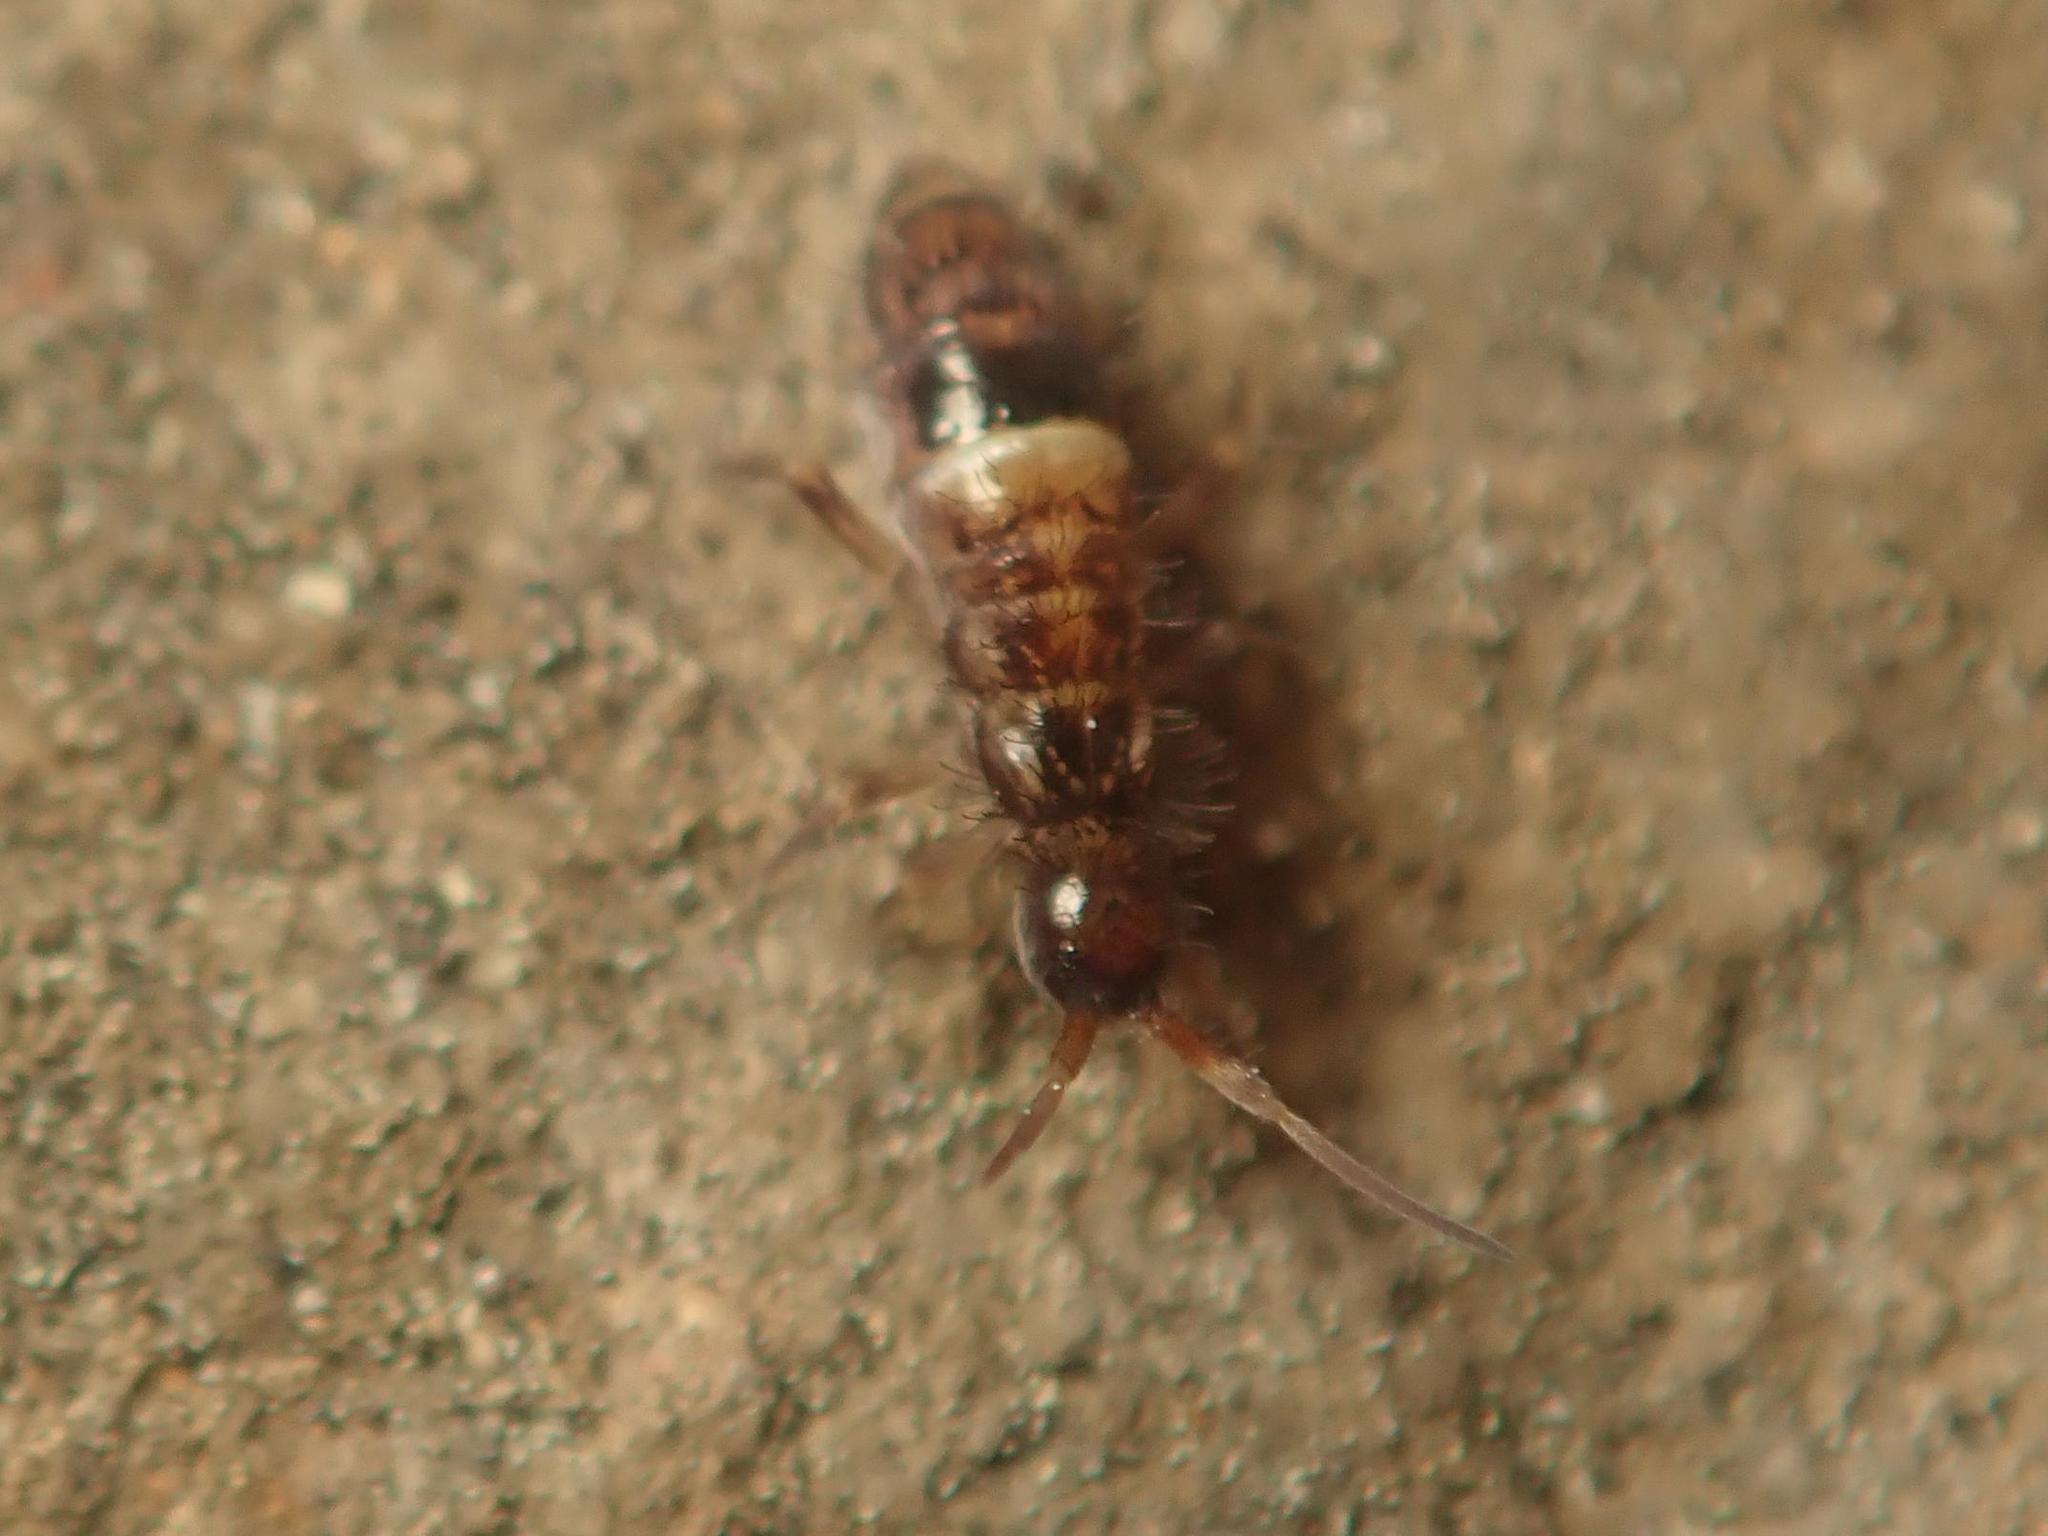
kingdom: Animalia
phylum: Arthropoda
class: Collembola
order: Entomobryomorpha
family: Orchesellidae
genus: Orchesella
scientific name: Orchesella cincta
